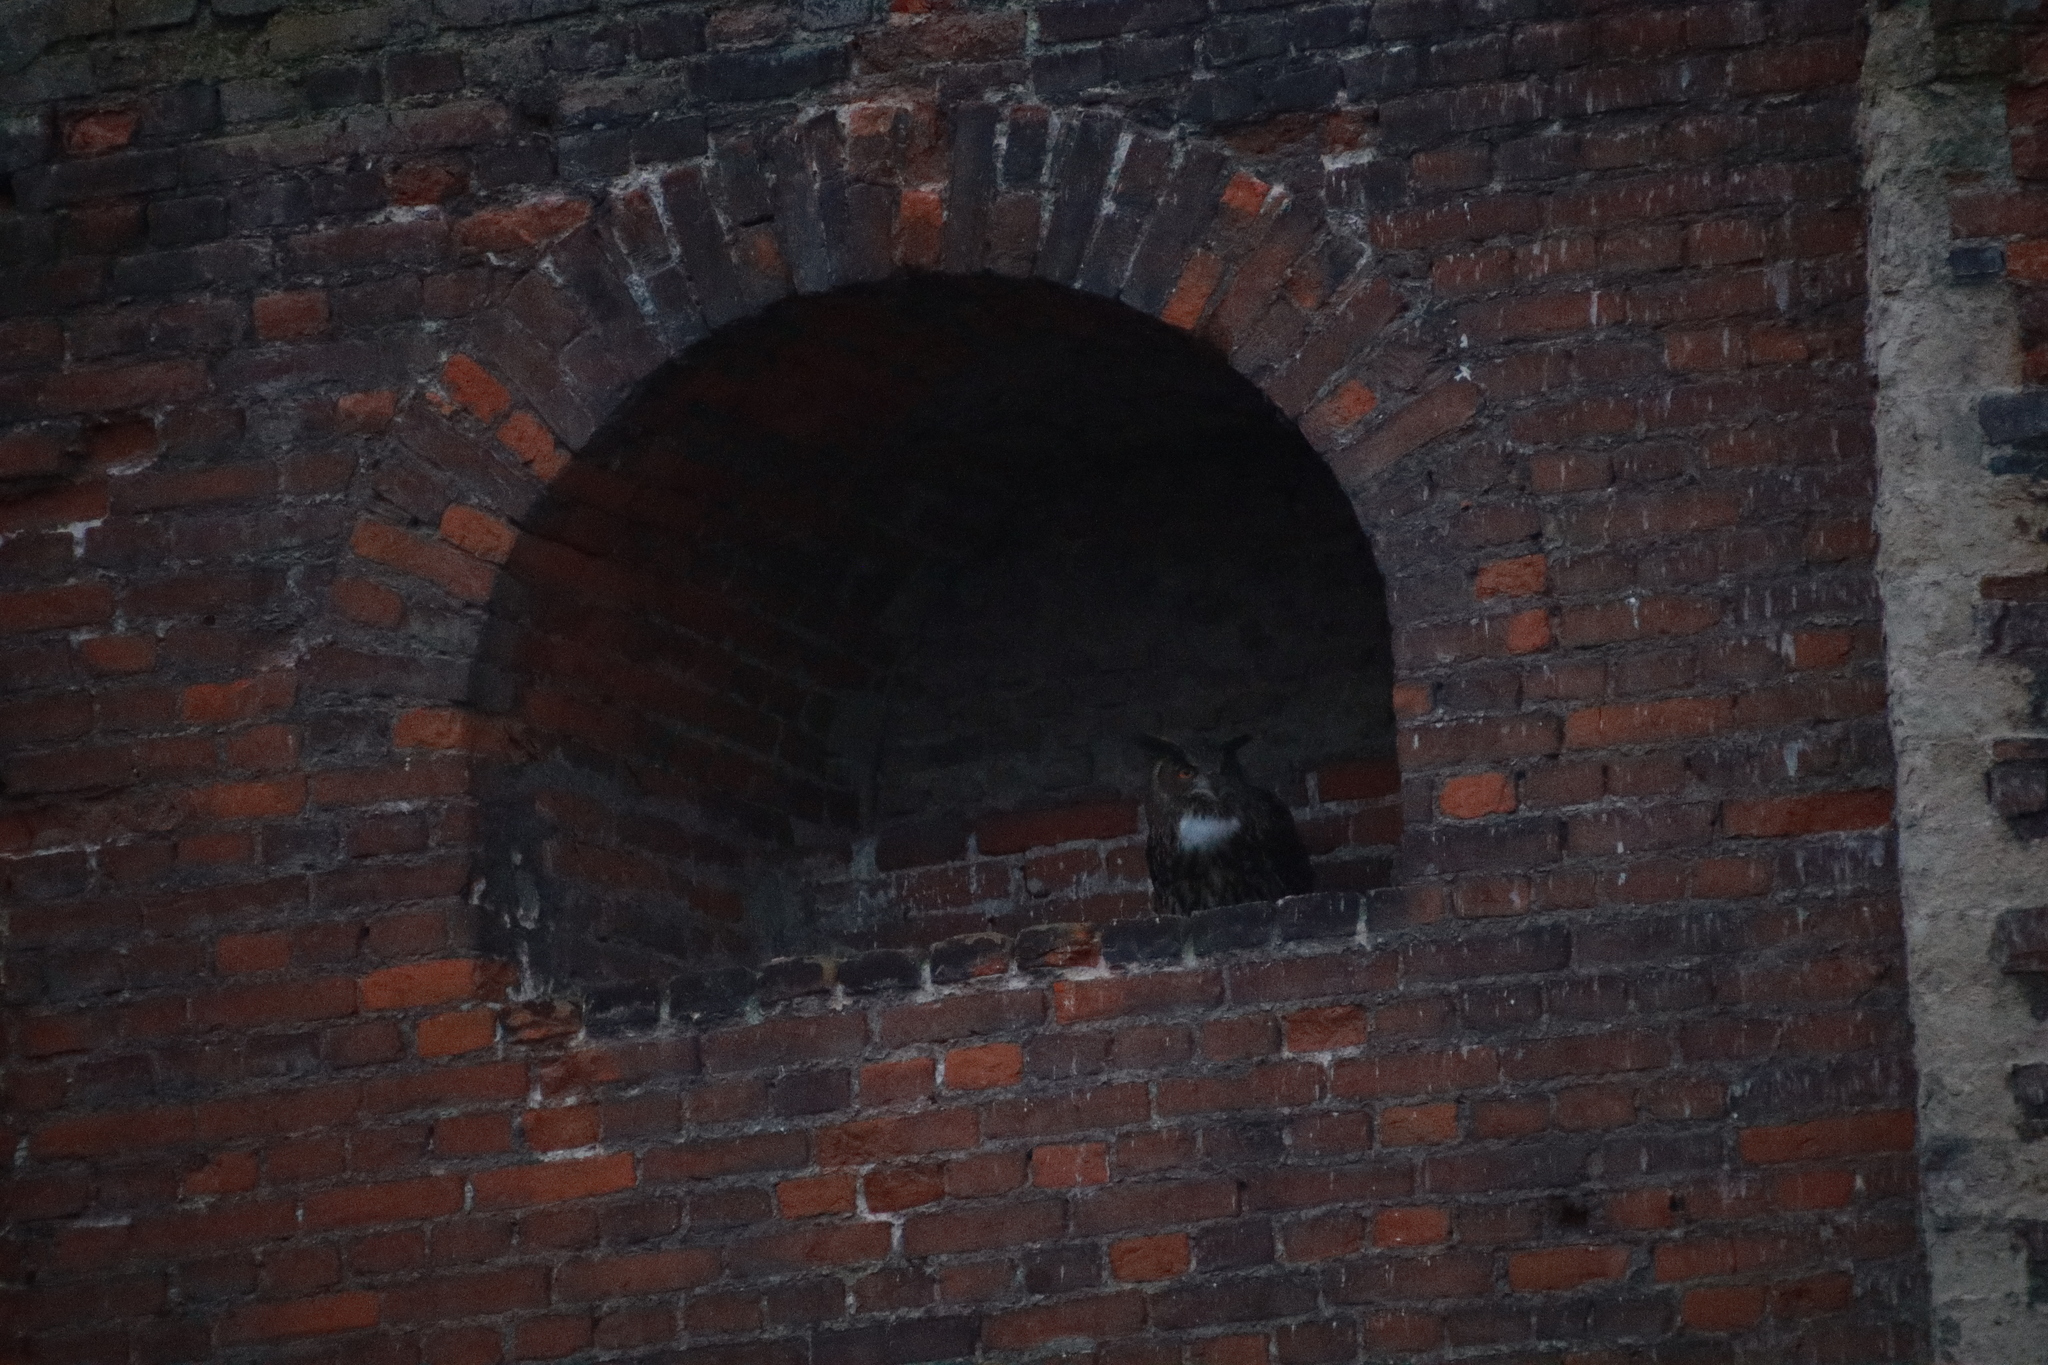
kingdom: Animalia
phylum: Chordata
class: Aves
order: Strigiformes
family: Strigidae
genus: Bubo
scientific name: Bubo bubo
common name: Eurasian eagle-owl
